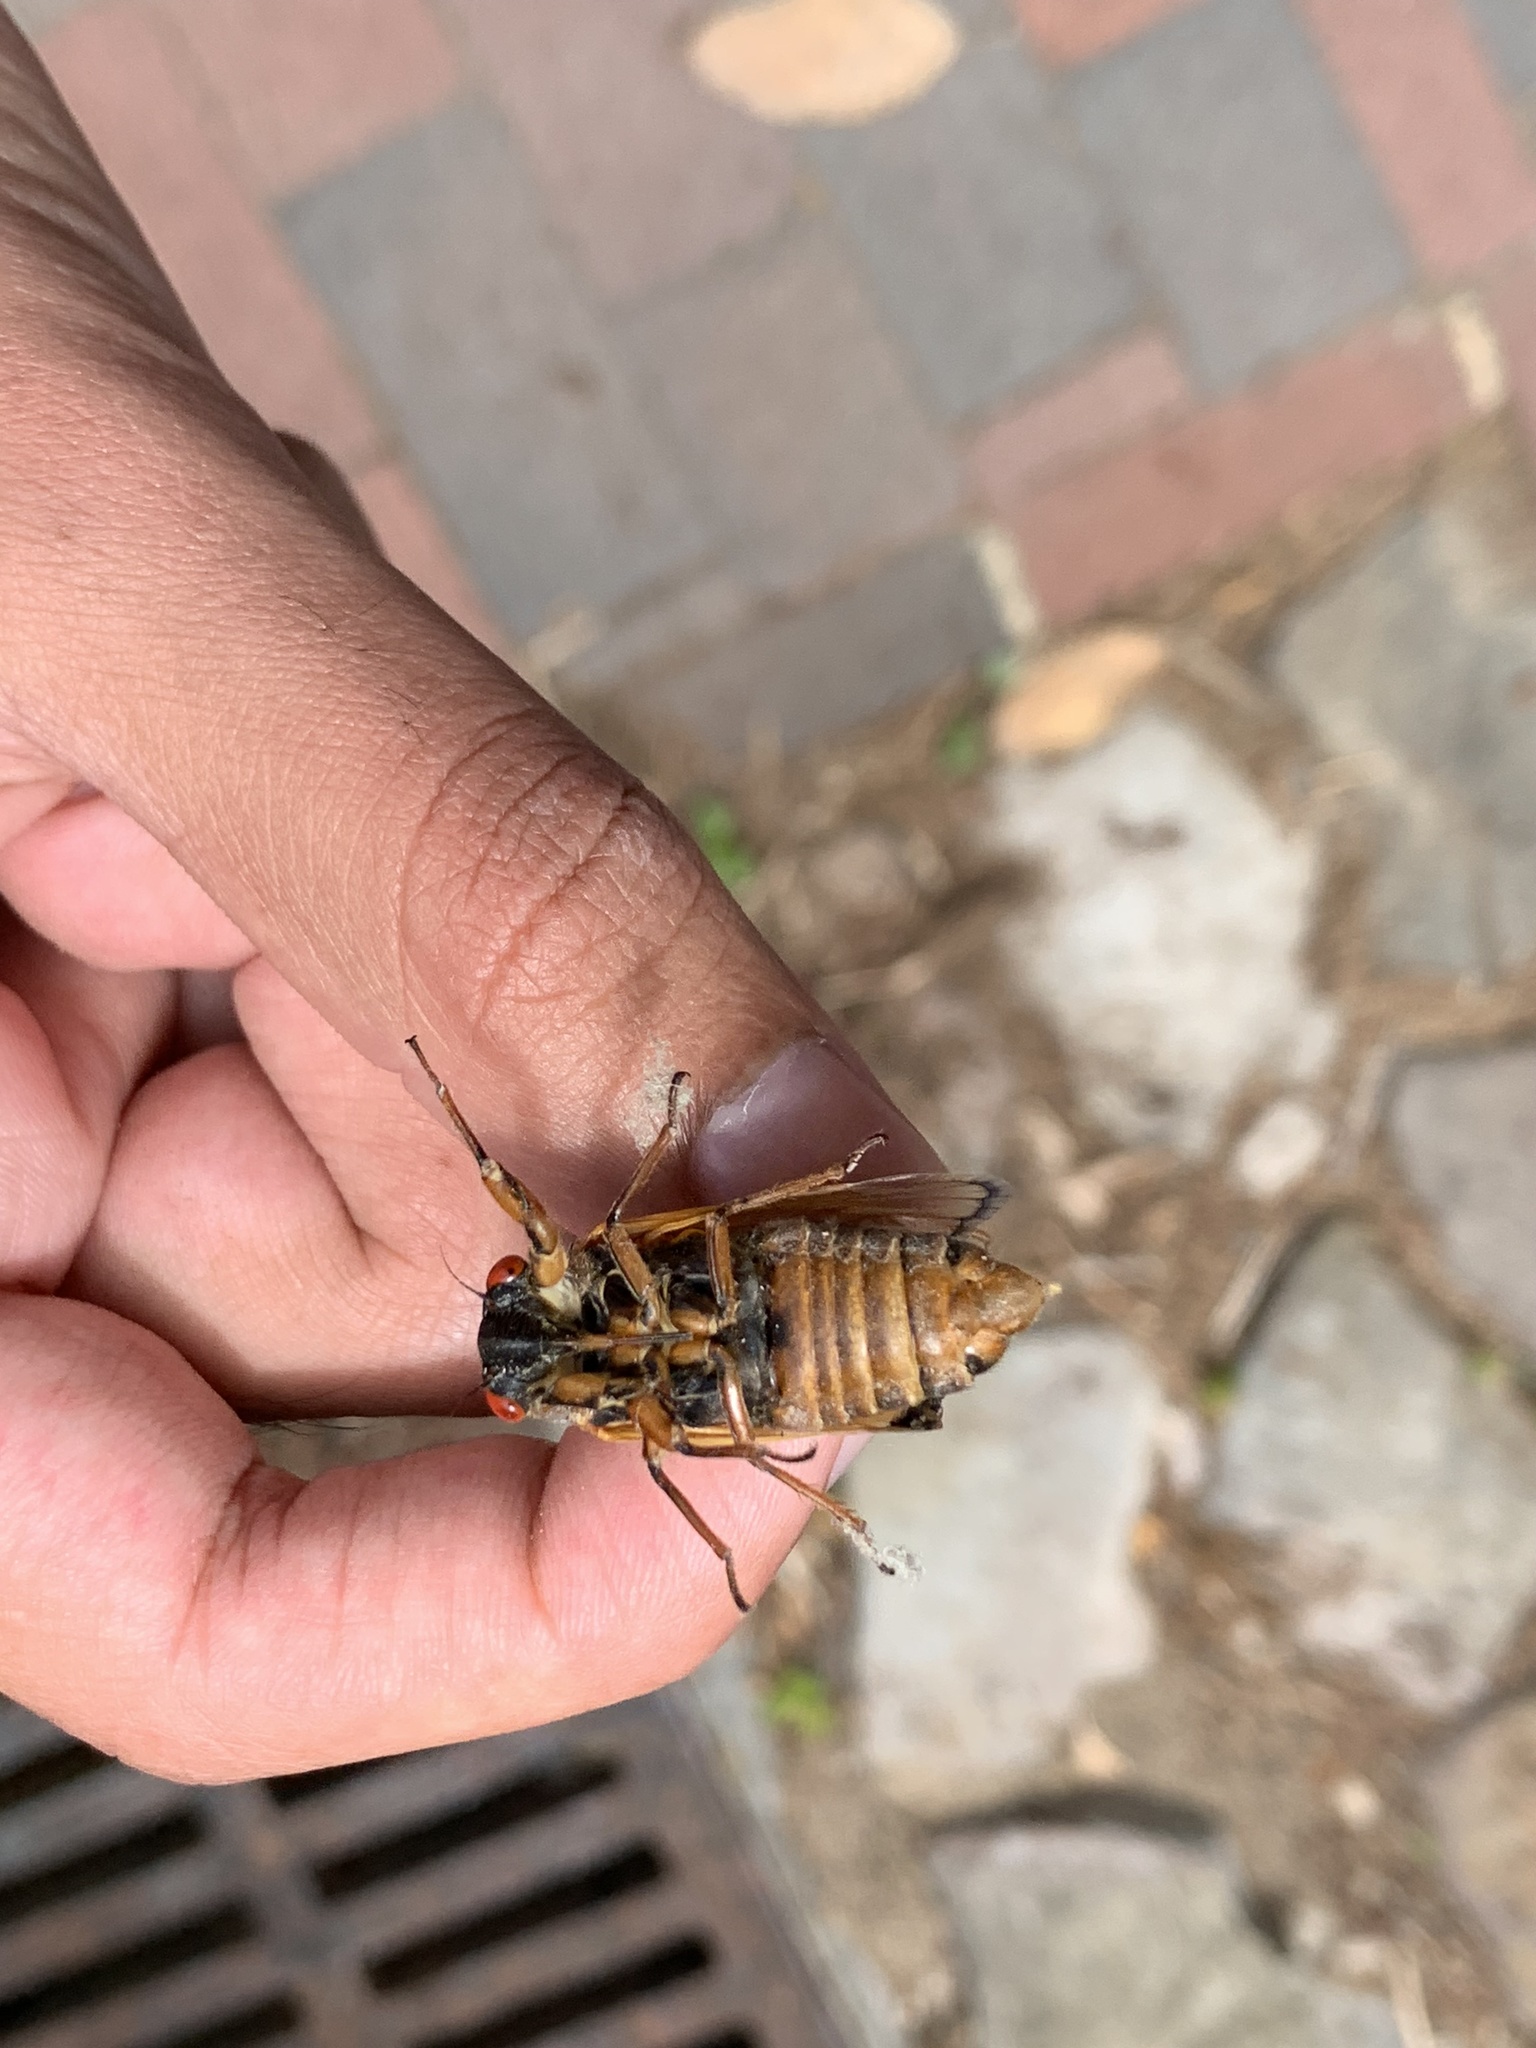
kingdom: Animalia
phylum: Arthropoda
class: Insecta
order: Hemiptera
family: Cicadidae
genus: Magicicada
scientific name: Magicicada tredecim
